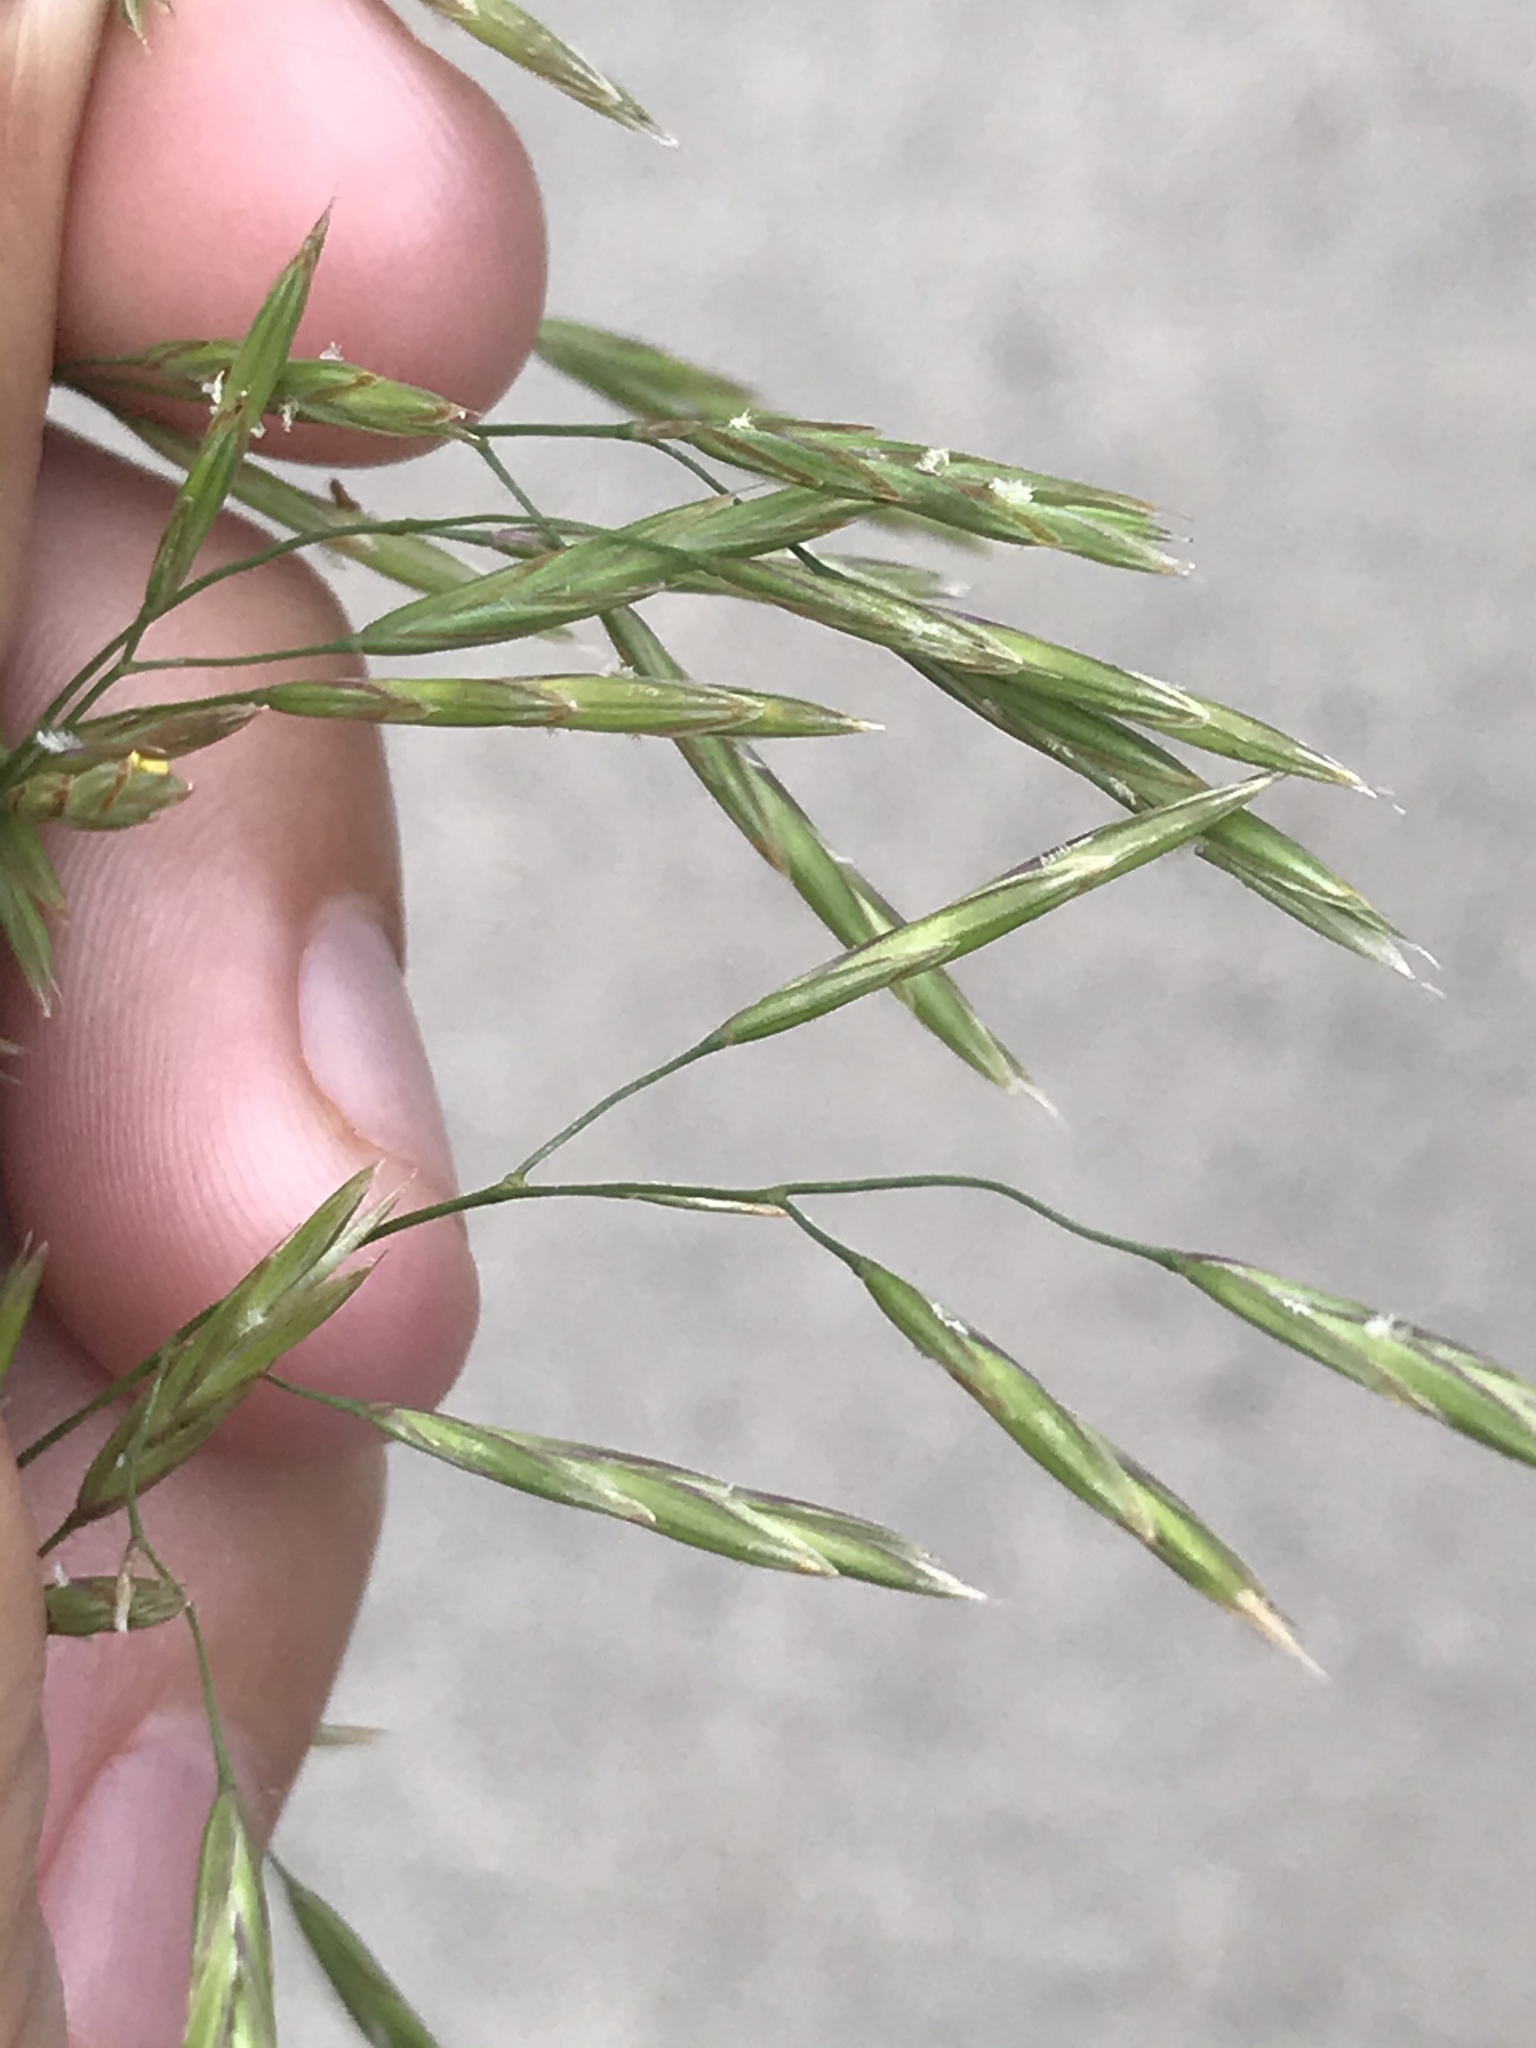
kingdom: Plantae
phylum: Tracheophyta
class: Liliopsida
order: Poales
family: Poaceae
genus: Bromus
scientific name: Bromus inermis
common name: Smooth brome
